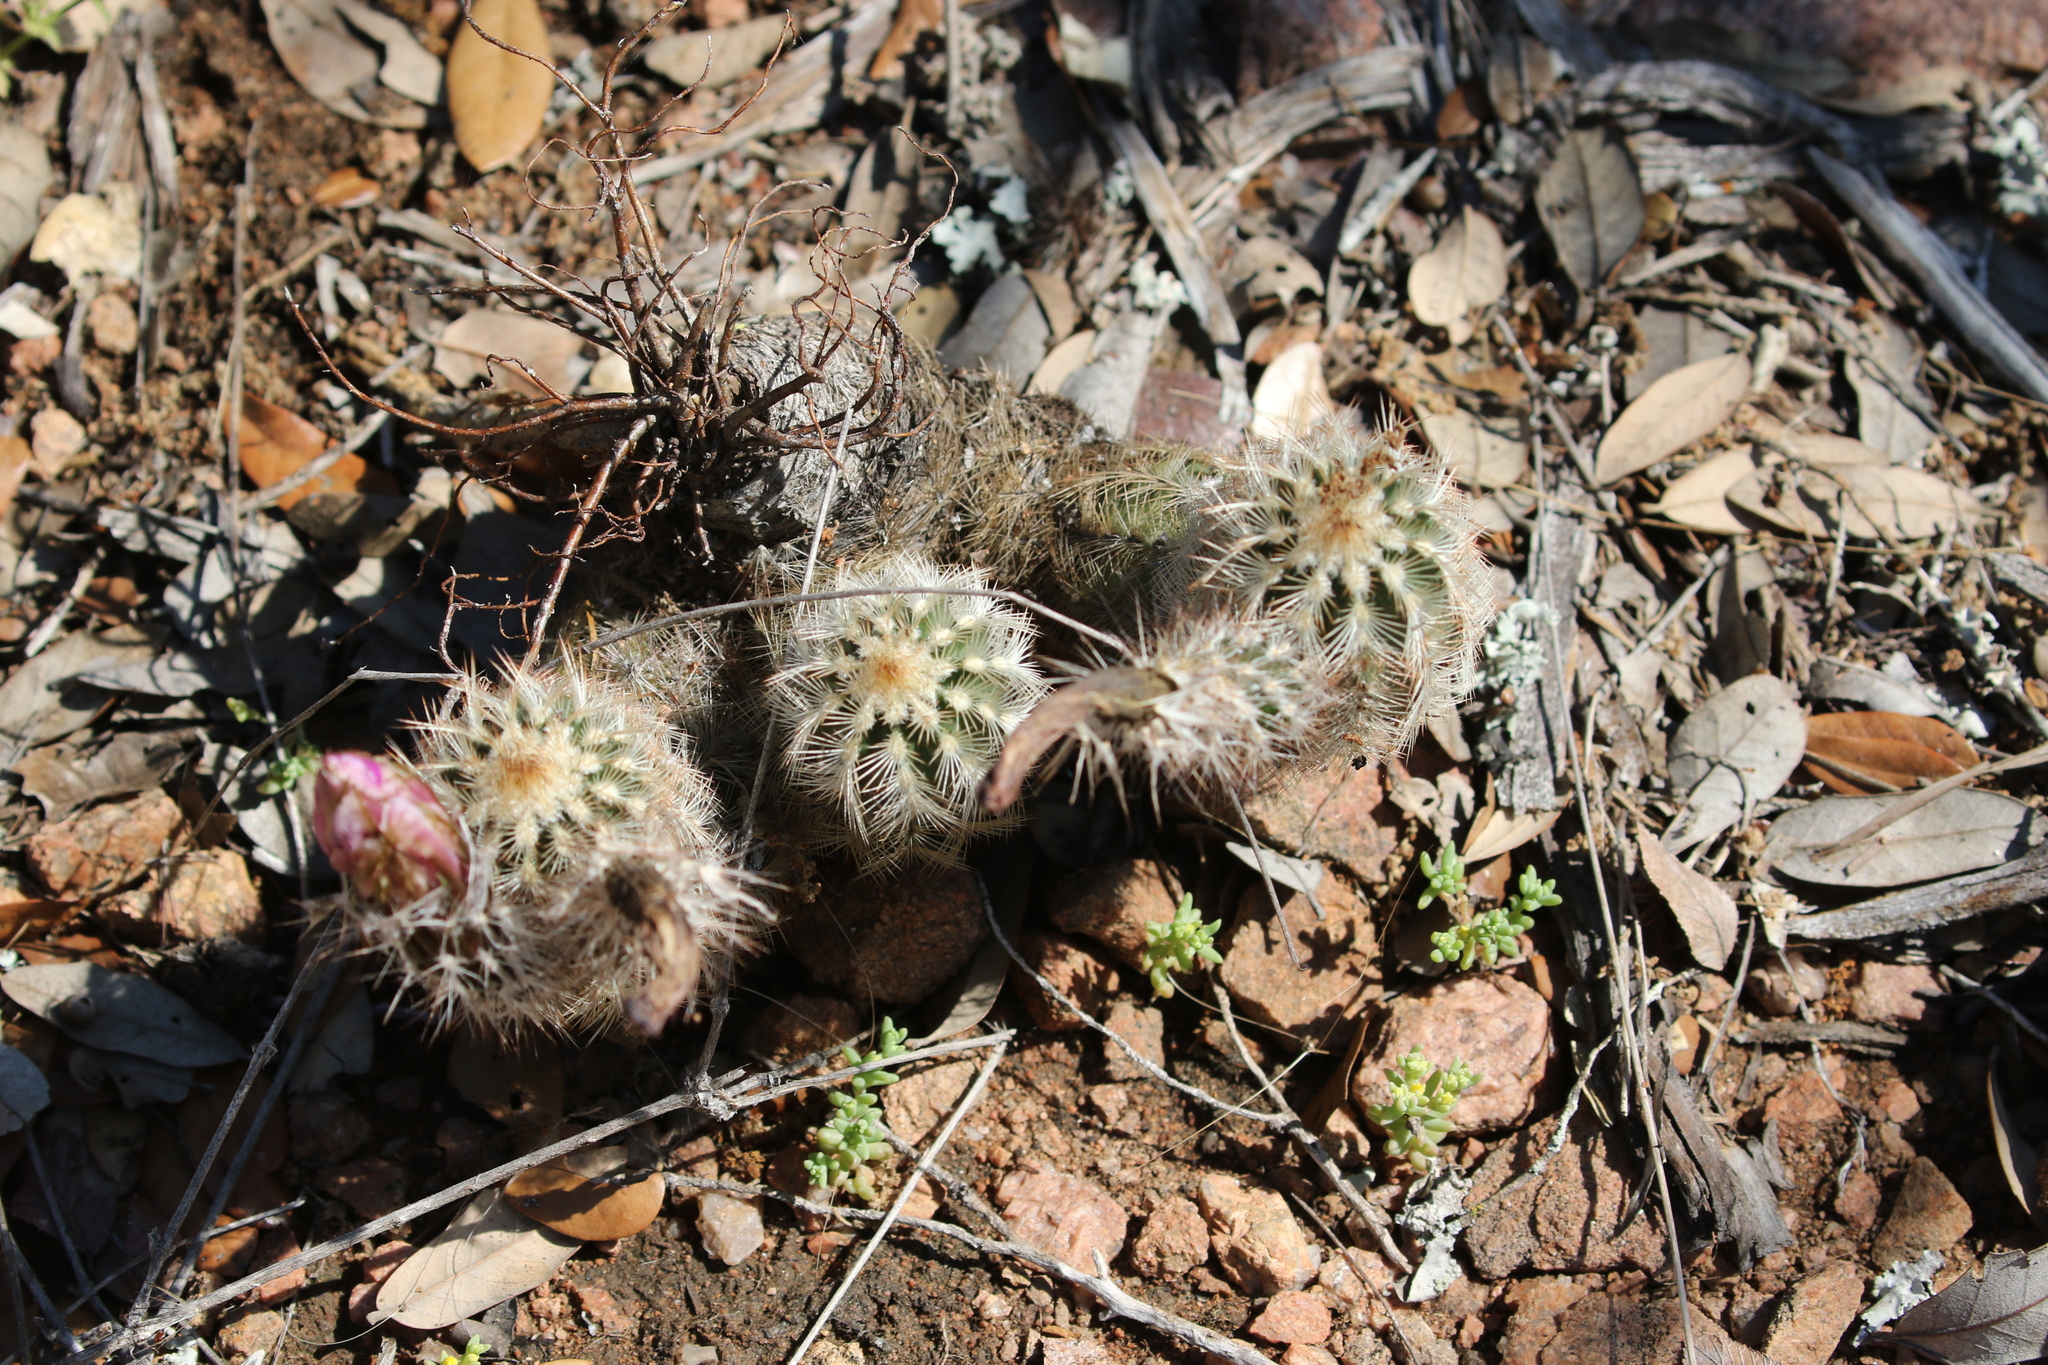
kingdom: Plantae
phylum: Tracheophyta
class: Magnoliopsida
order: Caryophyllales
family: Cactaceae
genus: Echinocereus
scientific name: Echinocereus reichenbachii
